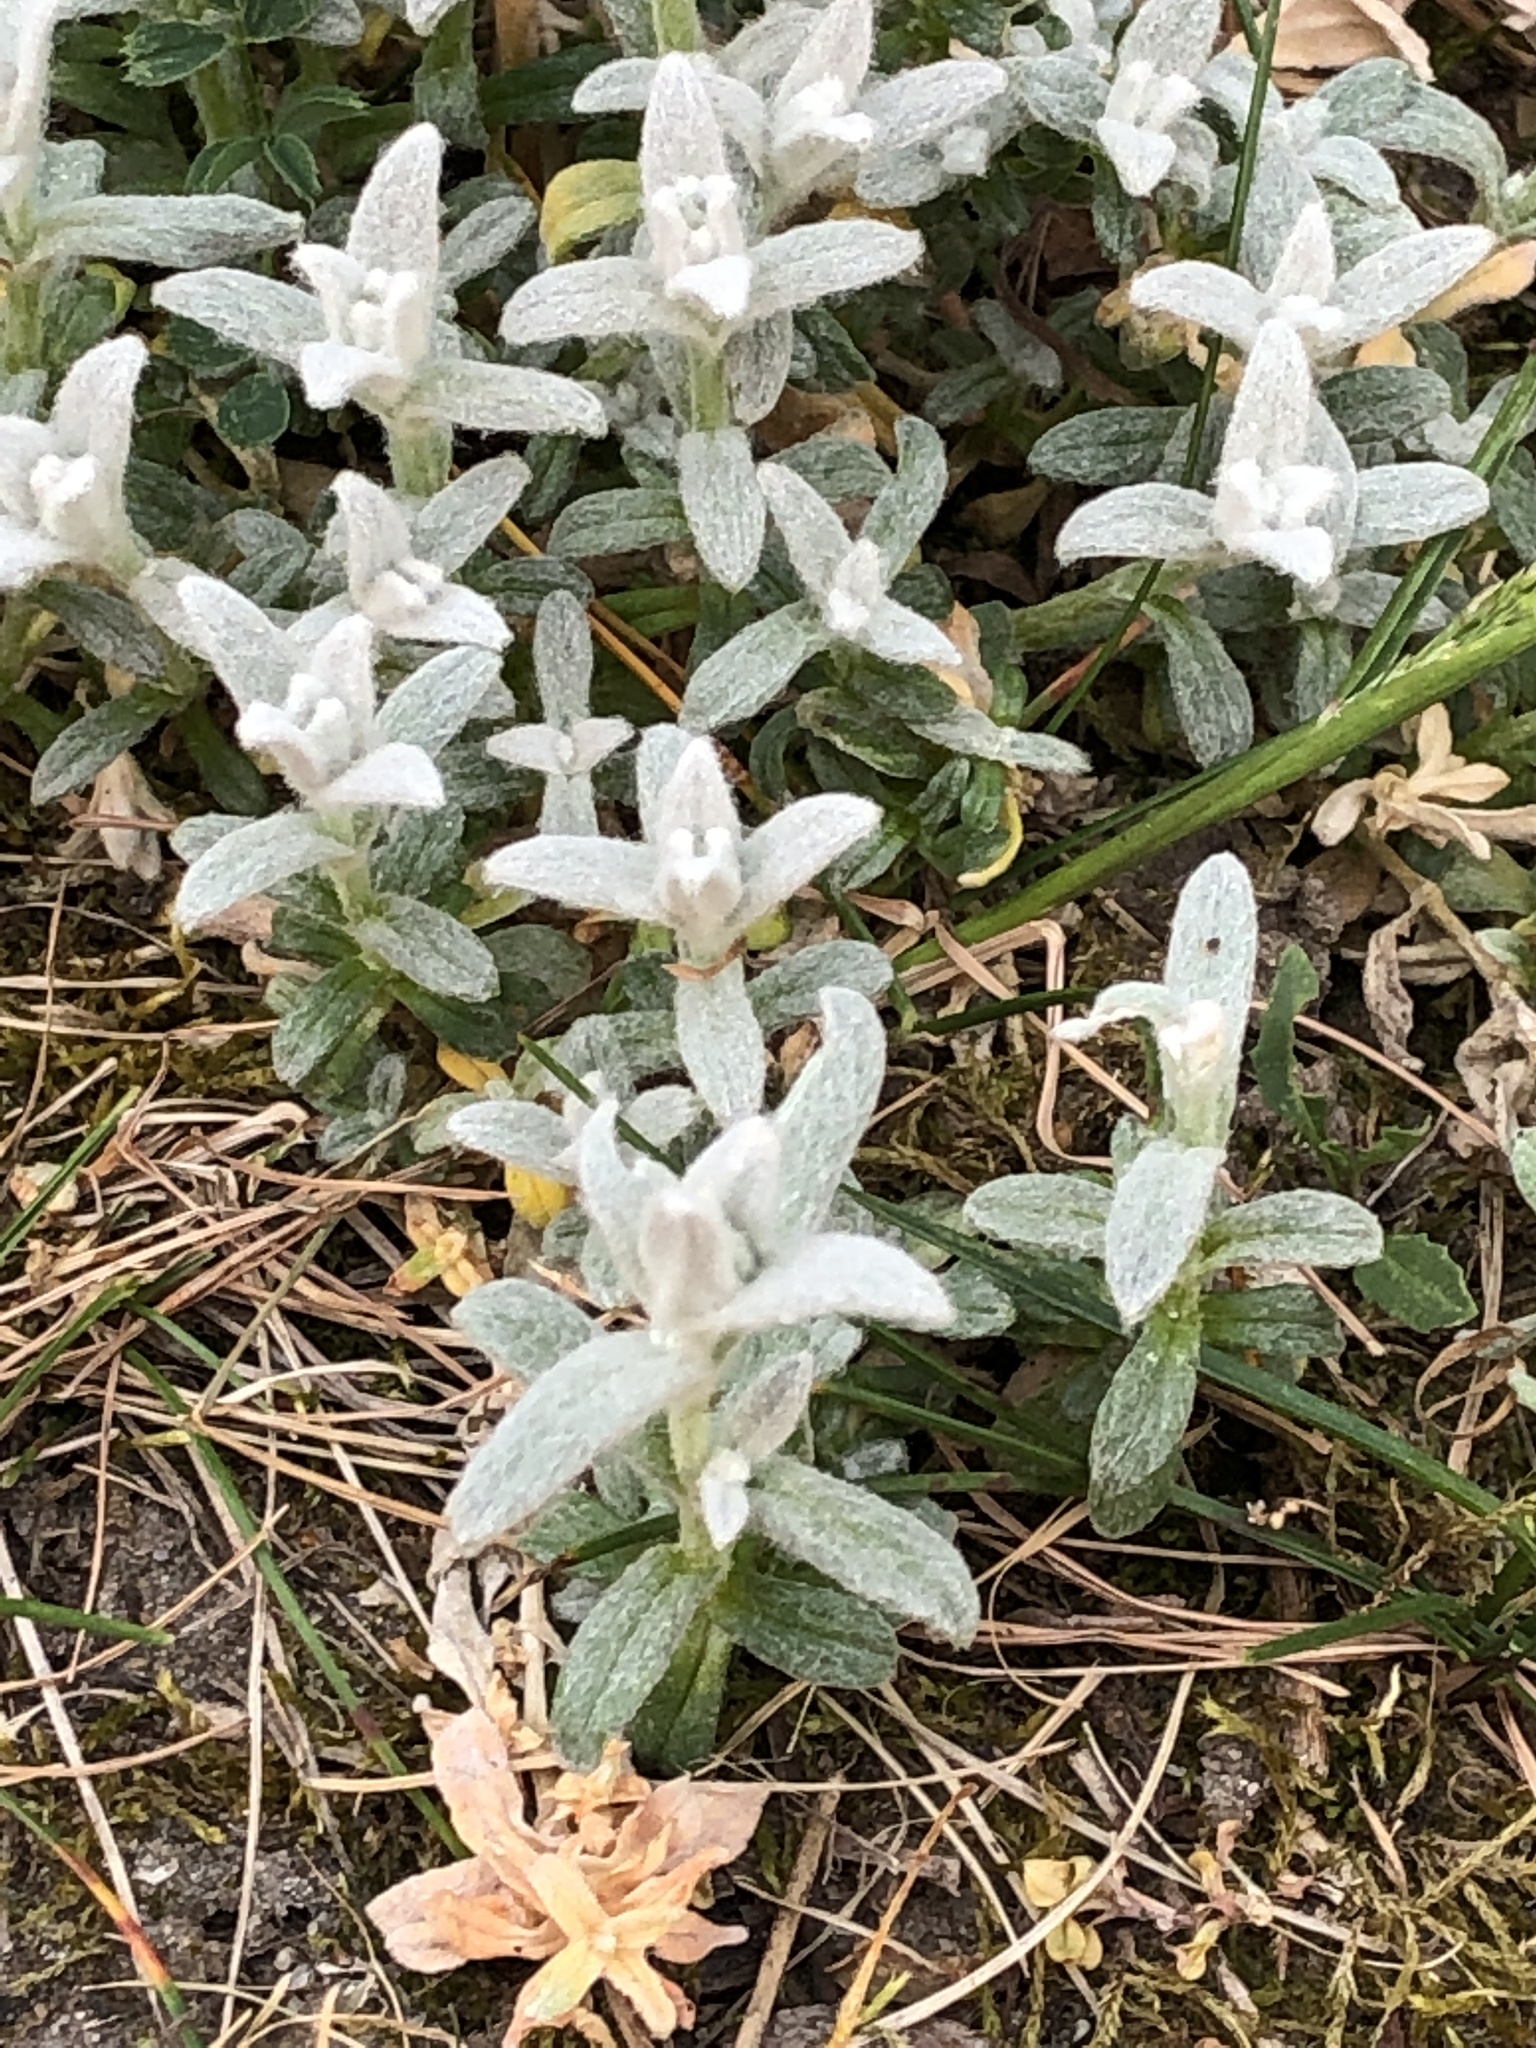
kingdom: Plantae
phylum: Tracheophyta
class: Magnoliopsida
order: Caryophyllales
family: Caryophyllaceae
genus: Cerastium
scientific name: Cerastium tomentosum
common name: Snow-in-summer
